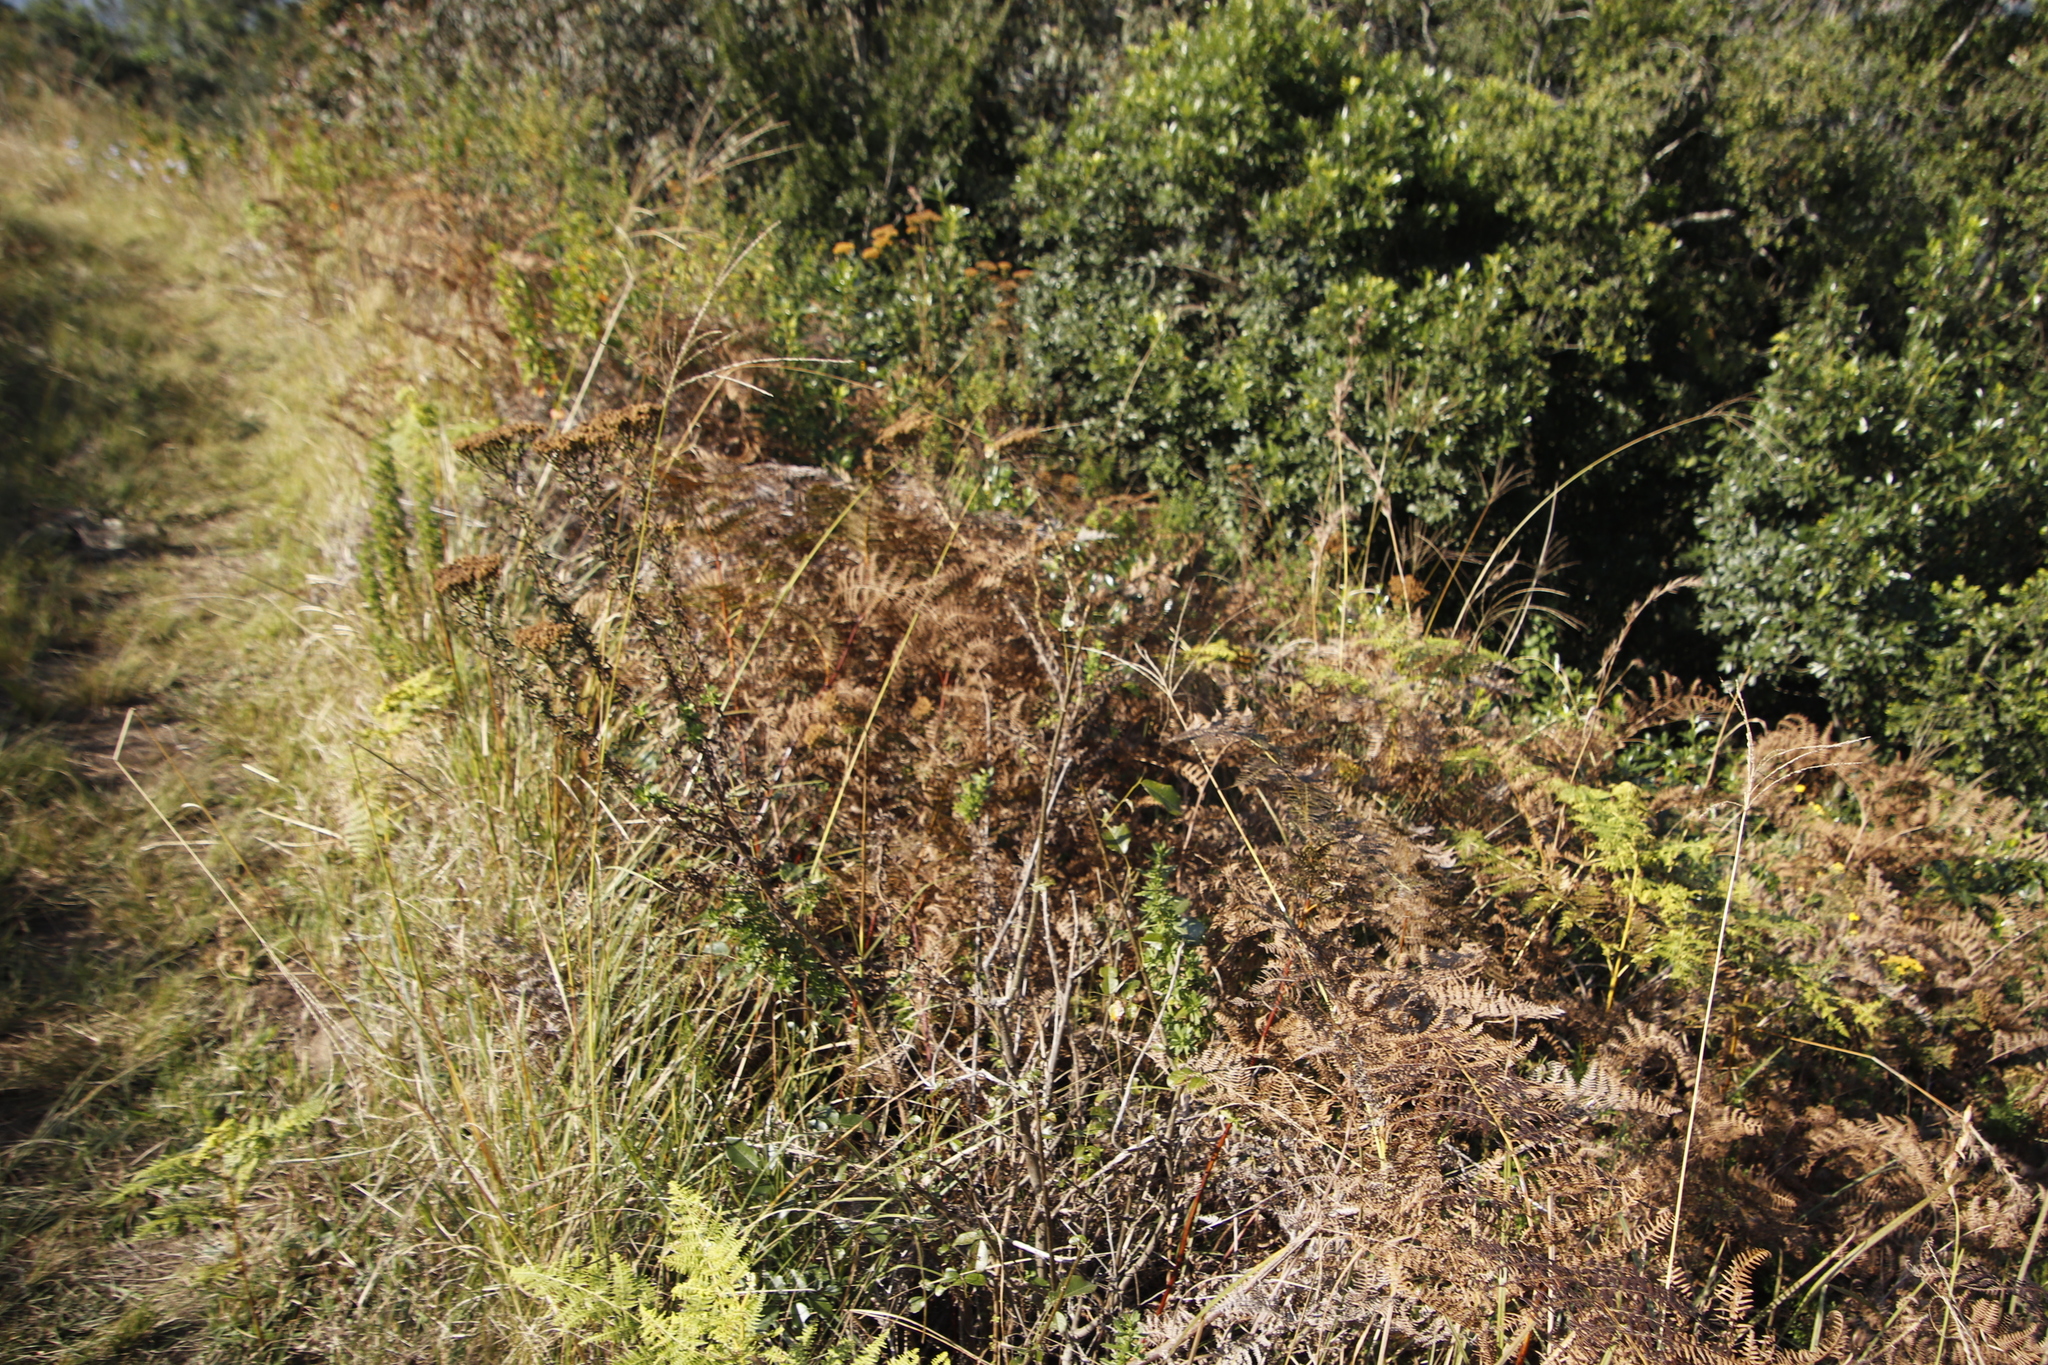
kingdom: Plantae
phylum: Tracheophyta
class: Polypodiopsida
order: Polypodiales
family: Dennstaedtiaceae
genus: Pteridium
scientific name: Pteridium aquilinum
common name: Bracken
